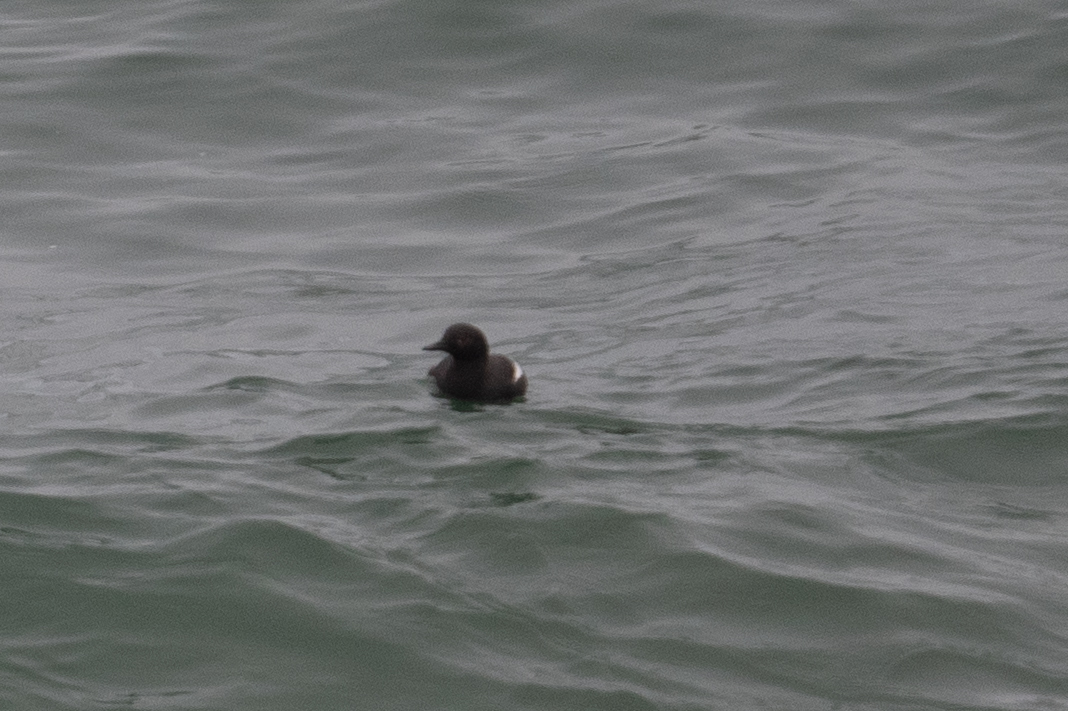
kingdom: Animalia
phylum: Chordata
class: Aves
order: Charadriiformes
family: Alcidae
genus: Cepphus
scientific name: Cepphus columba
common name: Pigeon guillemot
